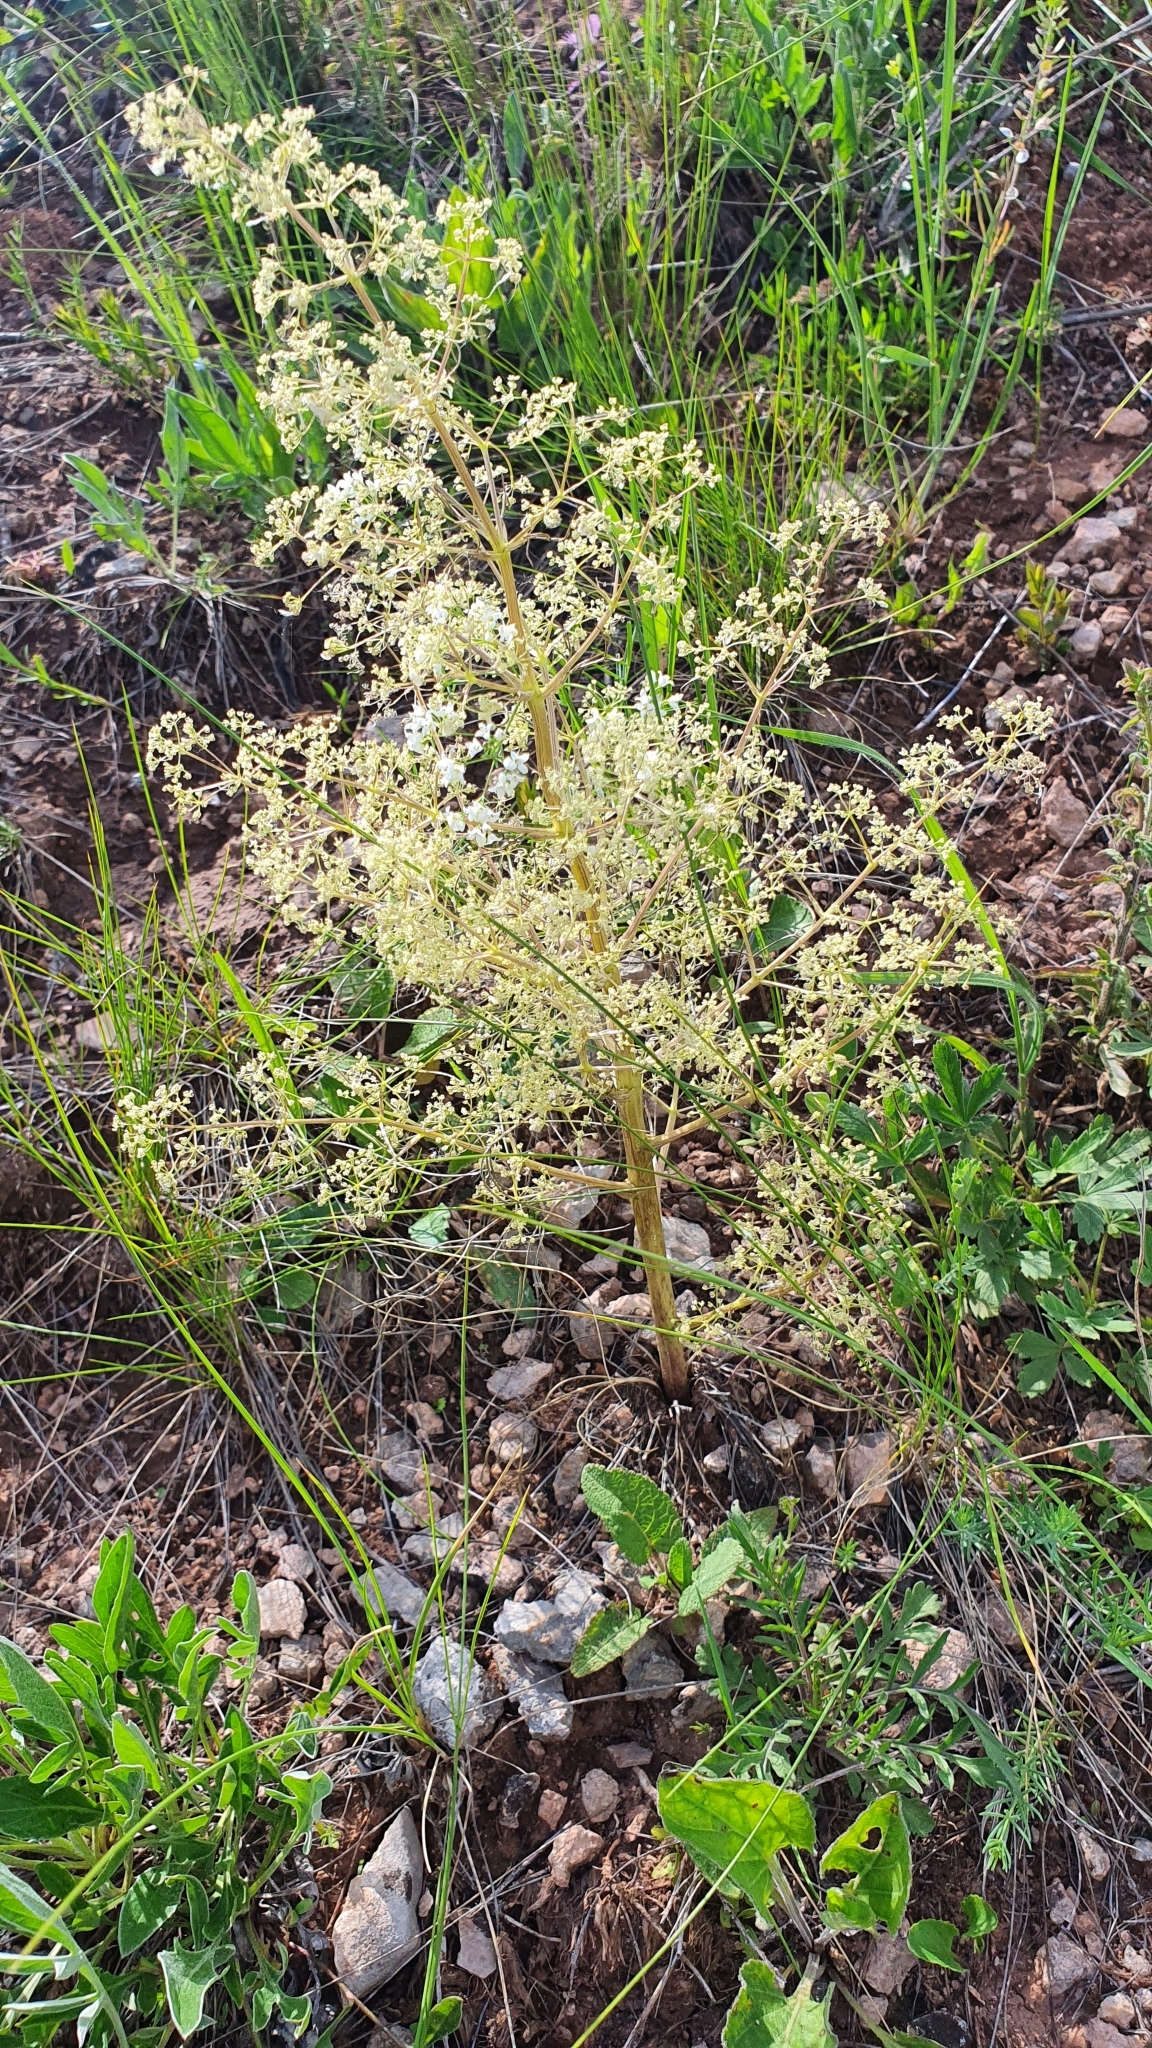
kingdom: Plantae
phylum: Tracheophyta
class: Magnoliopsida
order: Apiales
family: Apiaceae
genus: Trinia
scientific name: Trinia multicaulis
